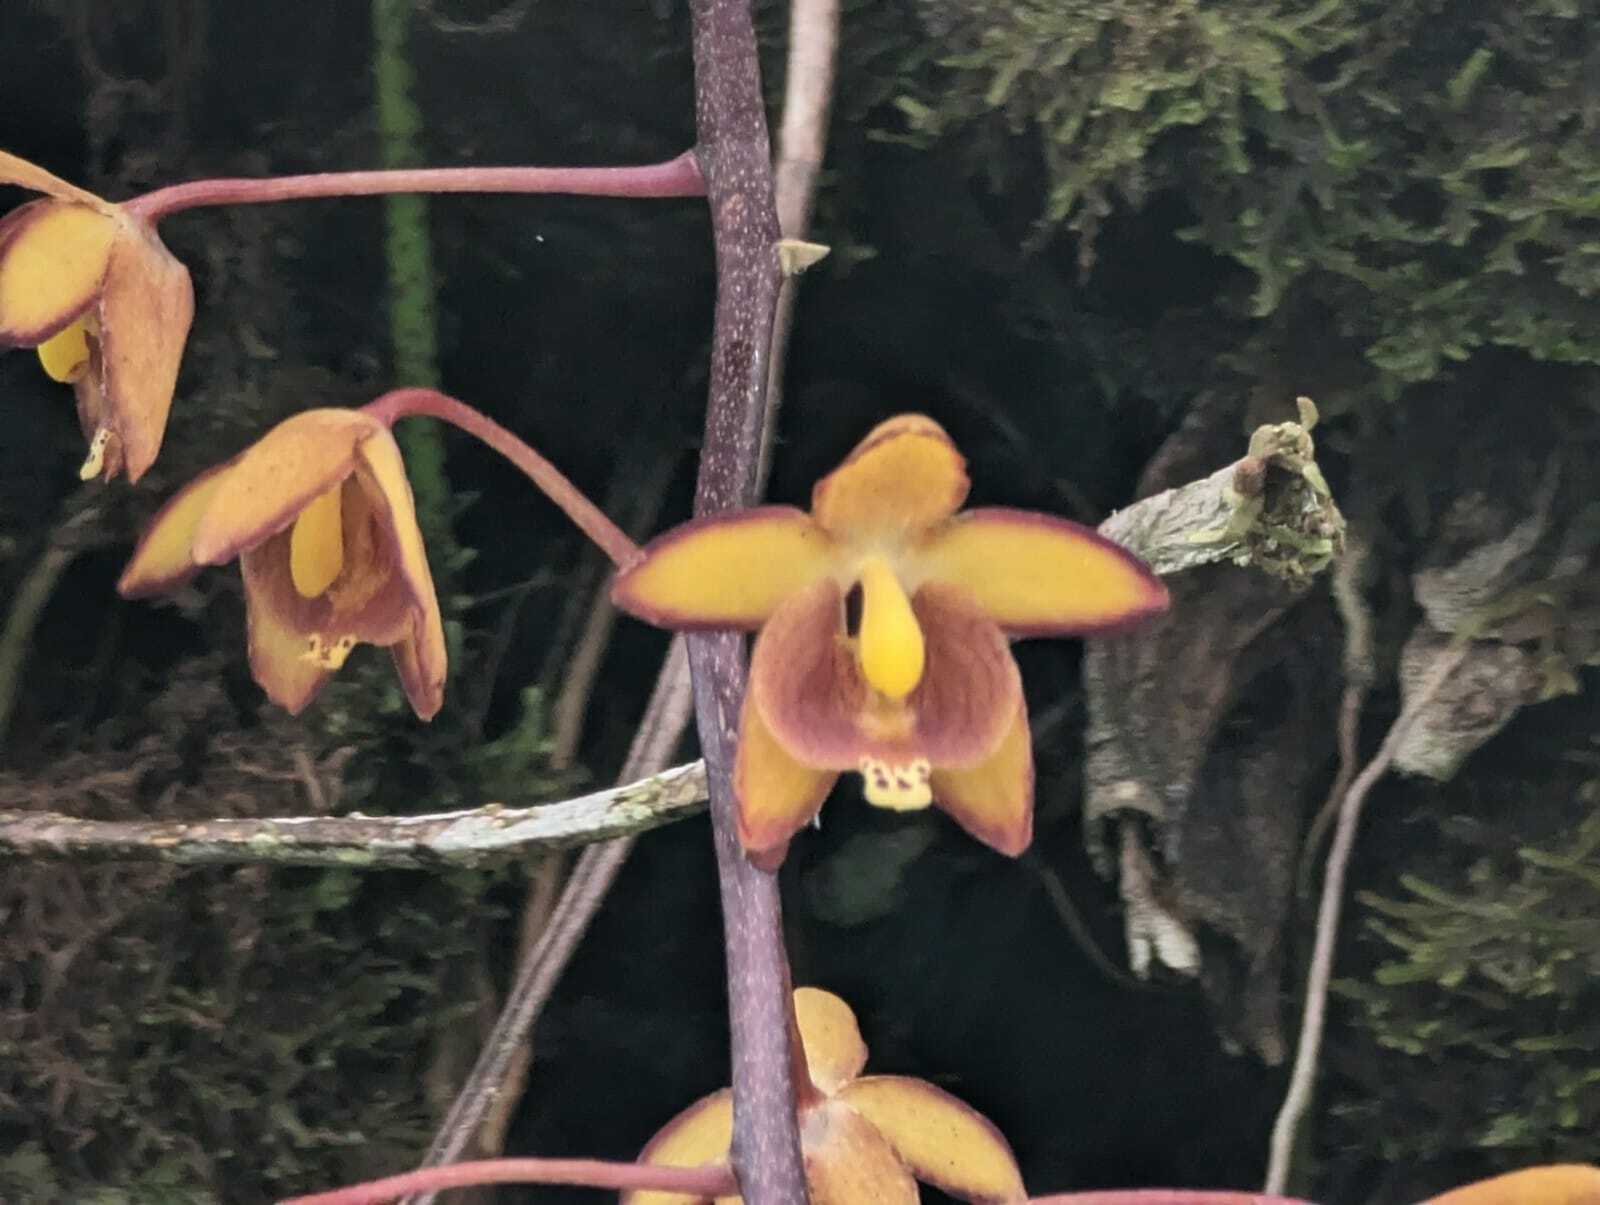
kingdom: Plantae
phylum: Tracheophyta
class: Liliopsida
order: Asparagales
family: Orchidaceae
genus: Eriopsis
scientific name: Eriopsis biloba
